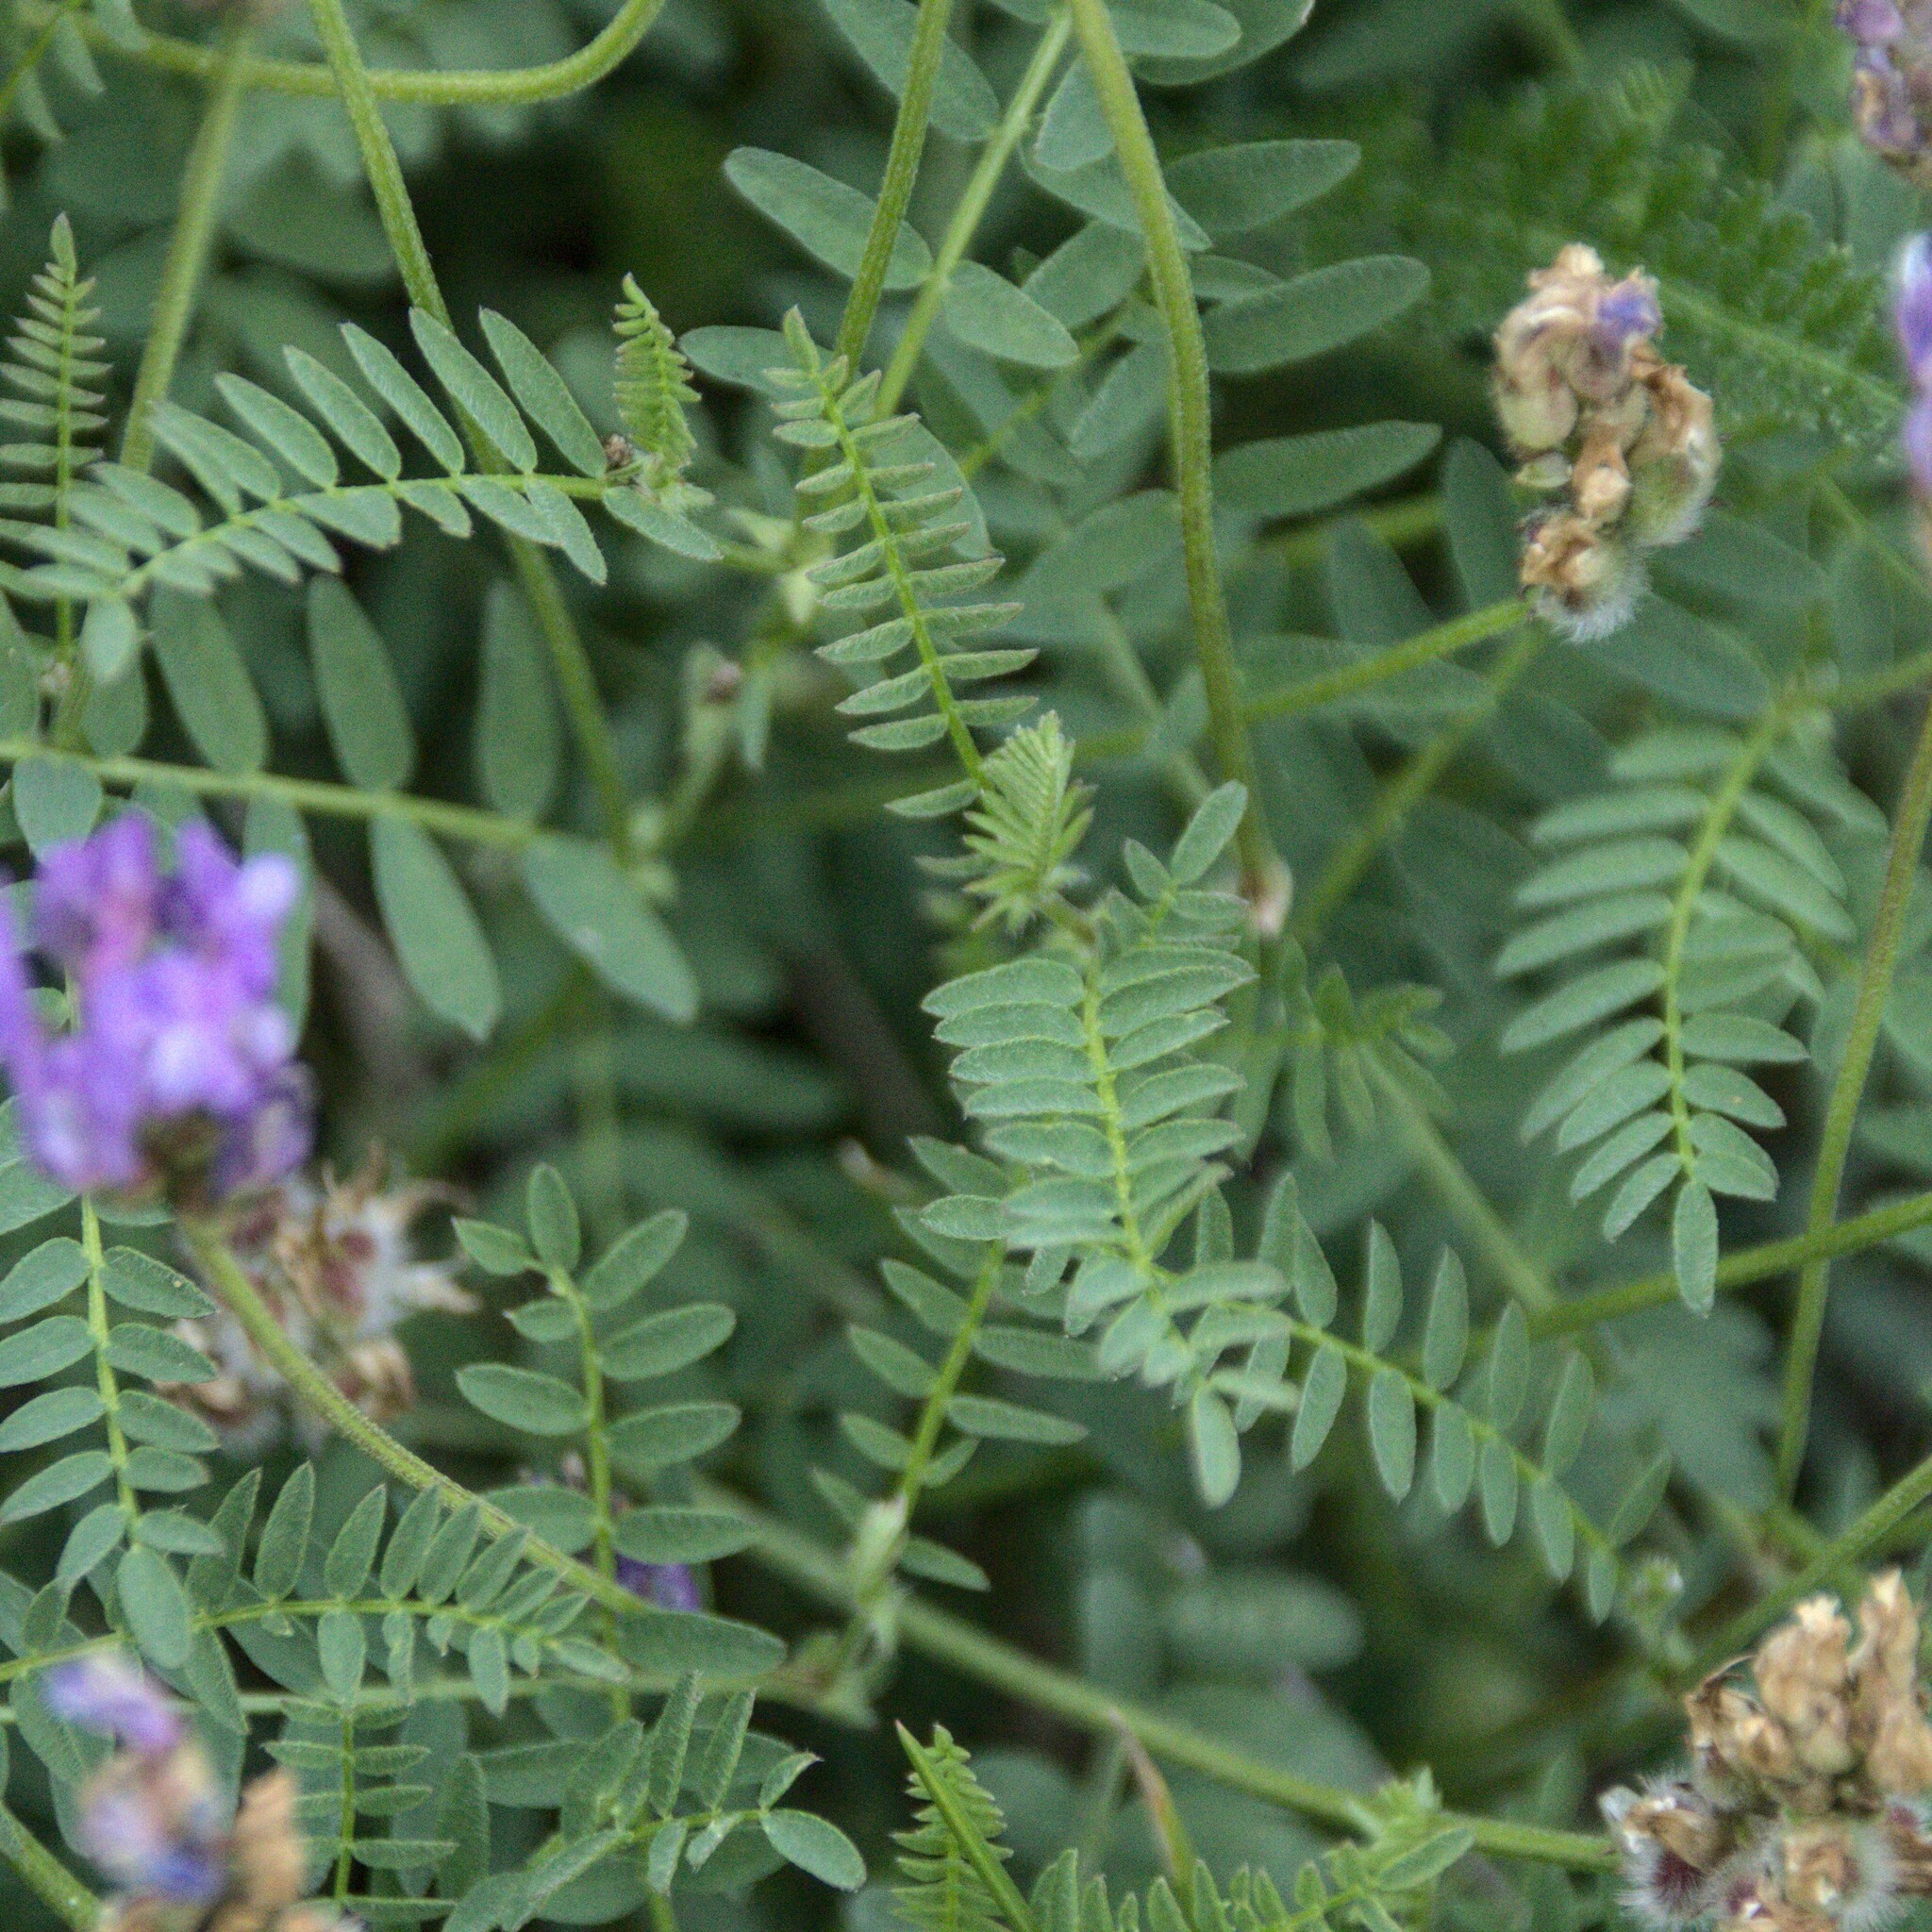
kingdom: Plantae
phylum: Tracheophyta
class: Magnoliopsida
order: Fabales
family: Fabaceae
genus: Astragalus
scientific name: Astragalus danicus
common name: Purple milk-vetch
